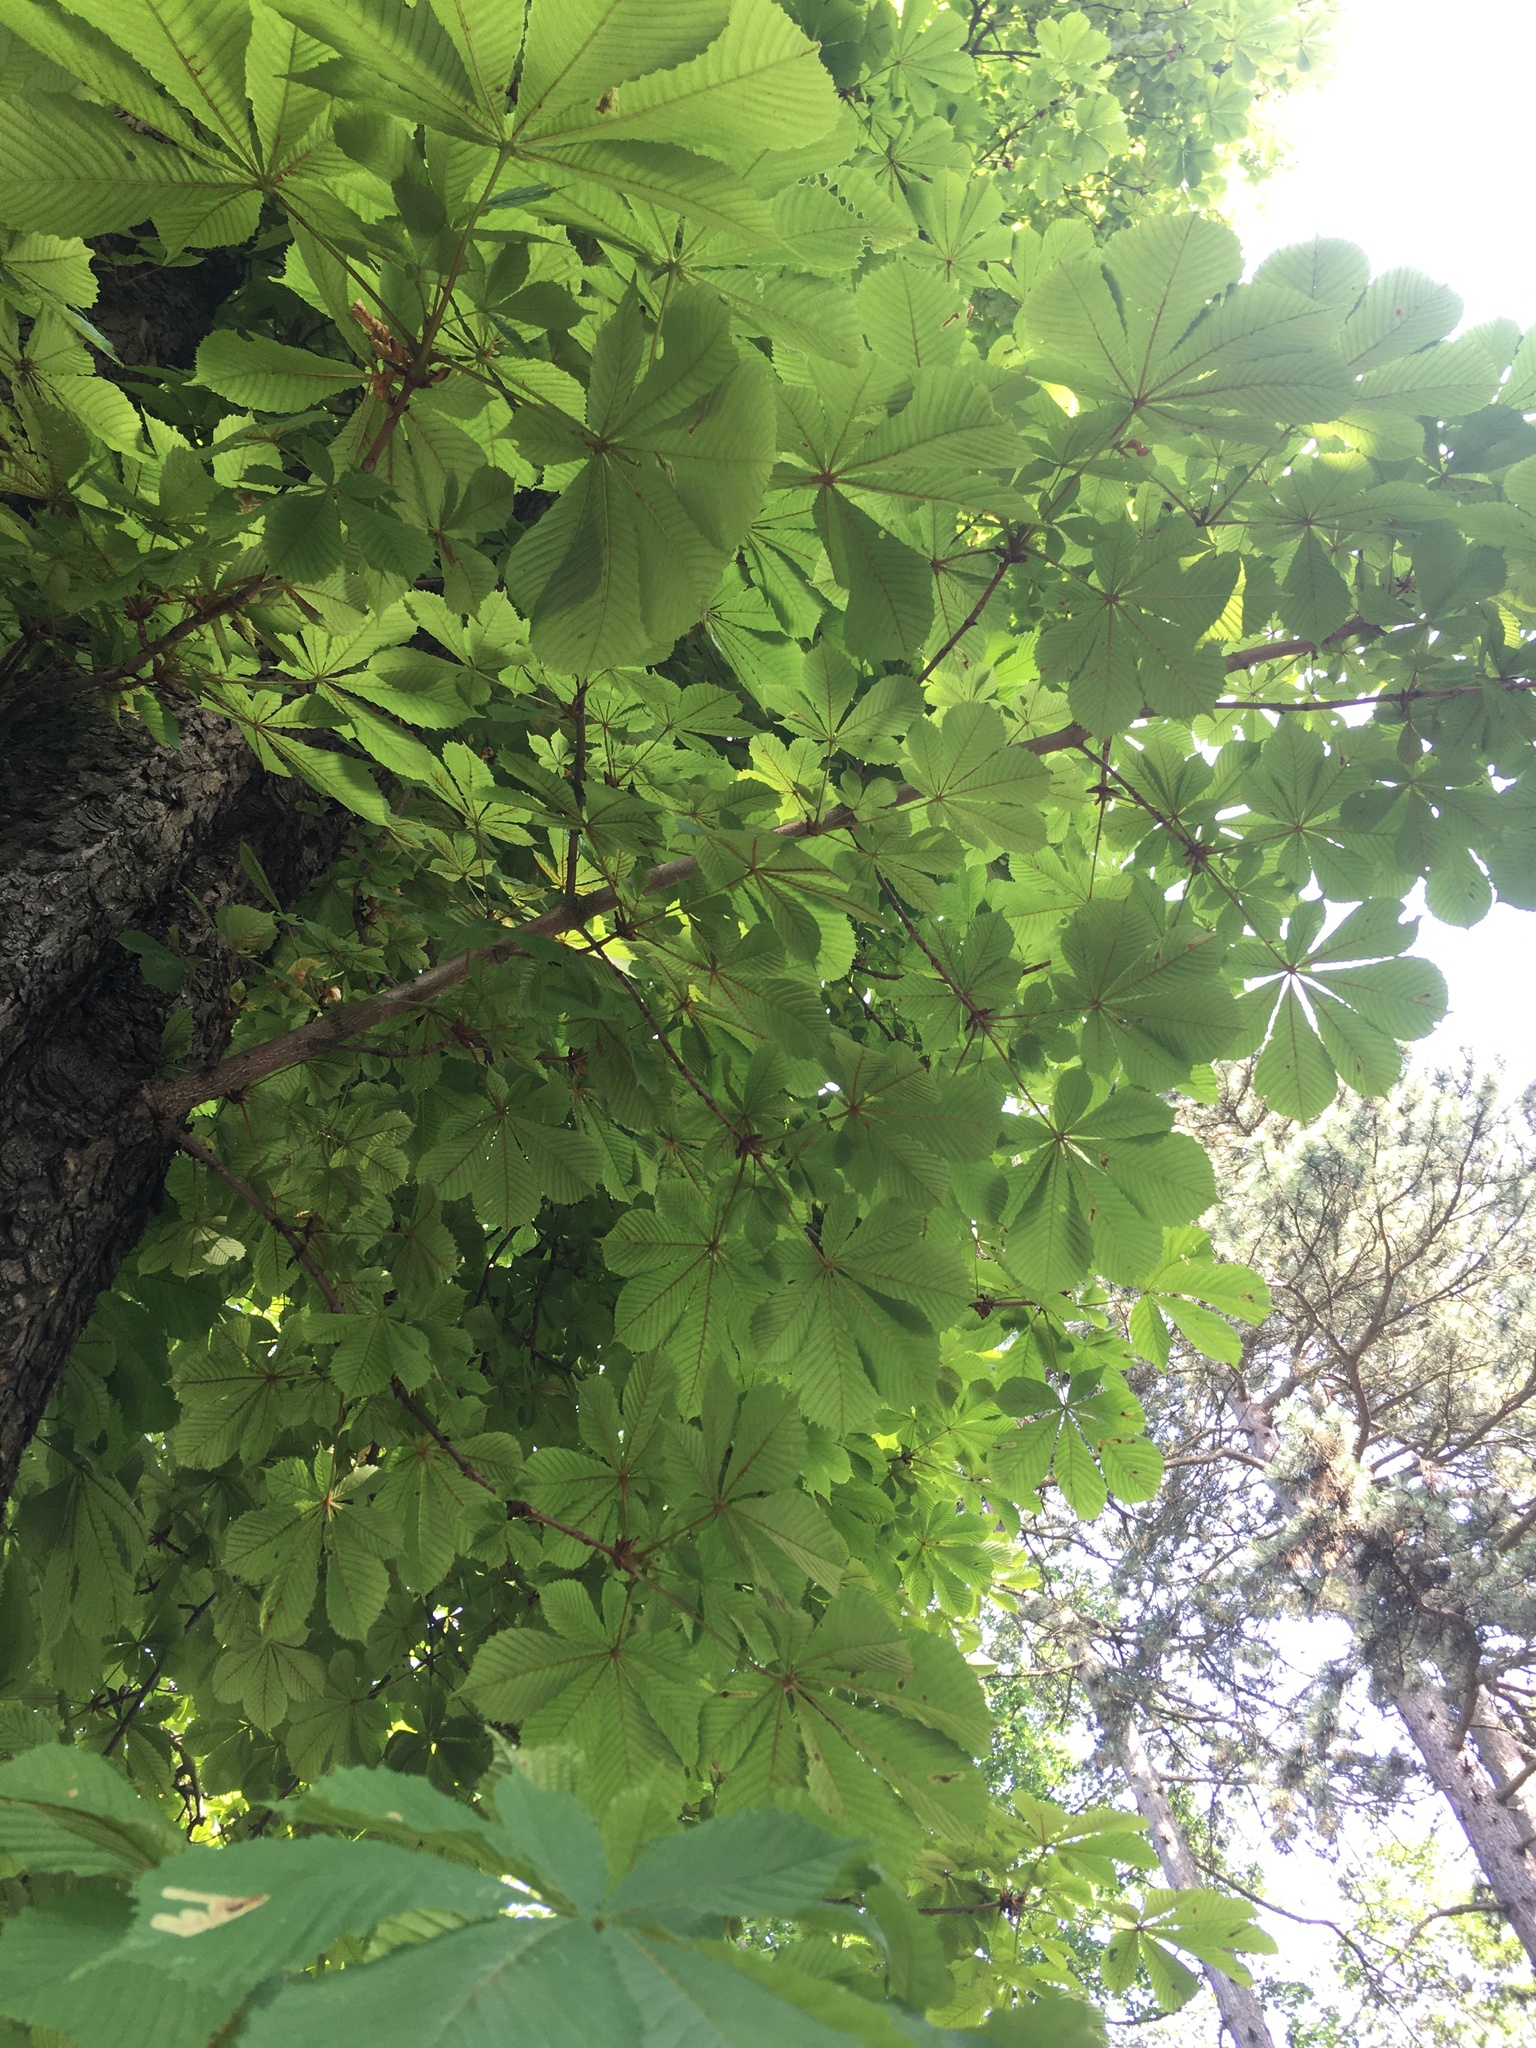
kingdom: Animalia
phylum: Arthropoda
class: Insecta
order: Lepidoptera
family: Gracillariidae
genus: Cameraria
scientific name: Cameraria ohridella
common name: Horse-chestnut leaf-miner
